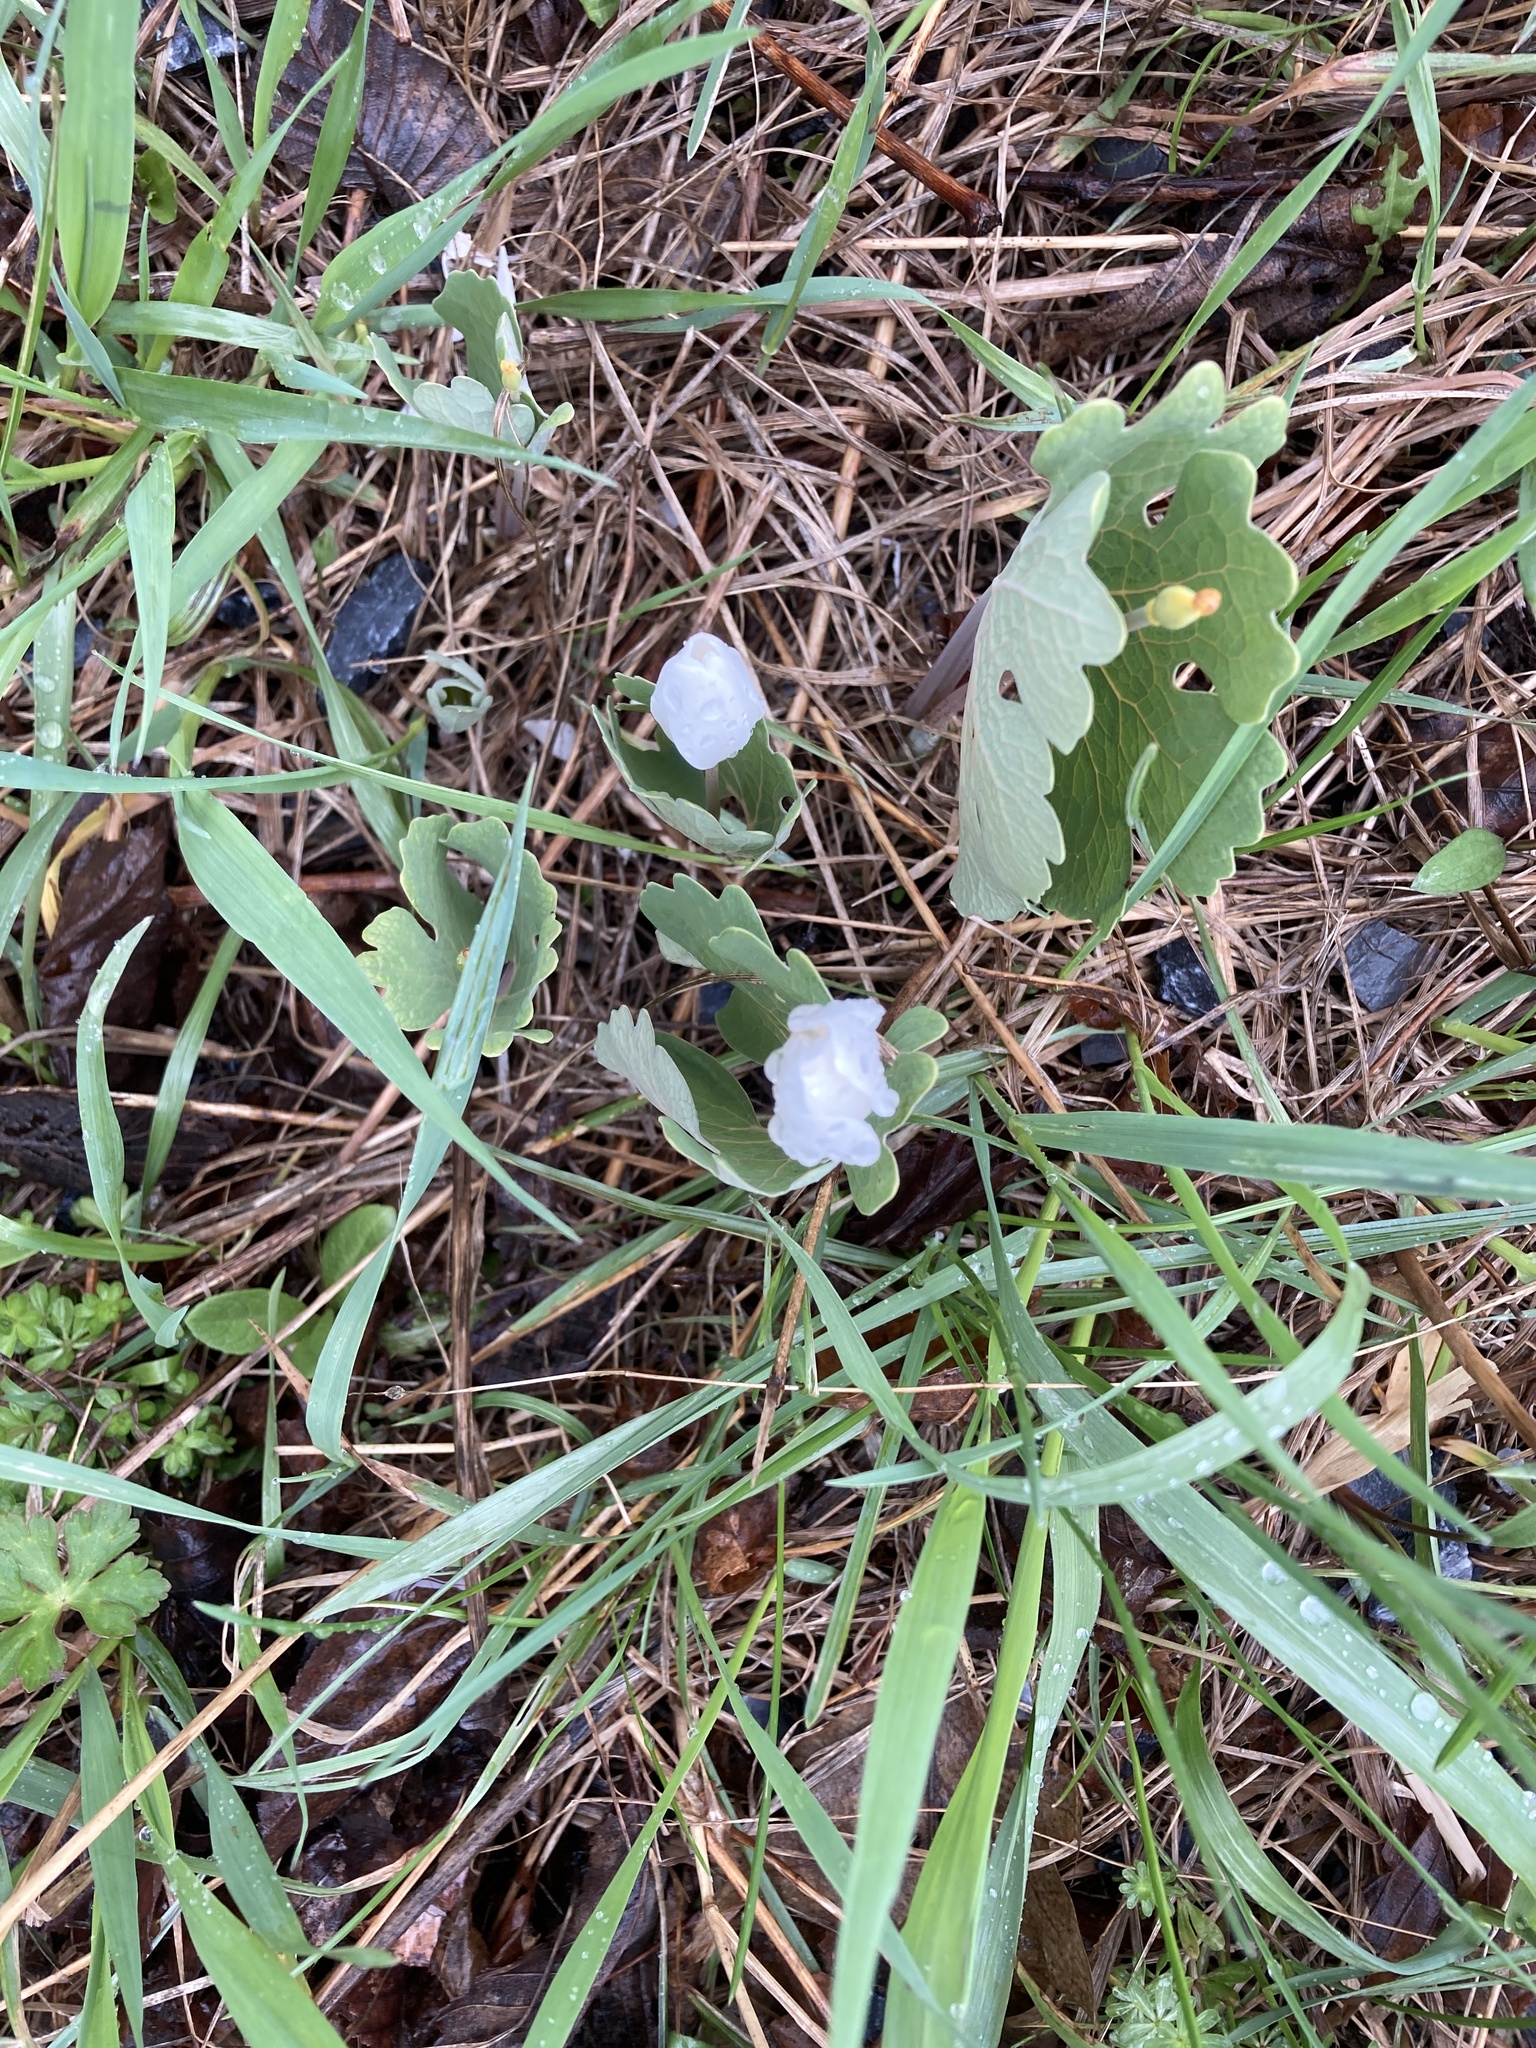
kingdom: Plantae
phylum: Tracheophyta
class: Magnoliopsida
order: Ranunculales
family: Papaveraceae
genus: Sanguinaria
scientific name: Sanguinaria canadensis
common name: Bloodroot
